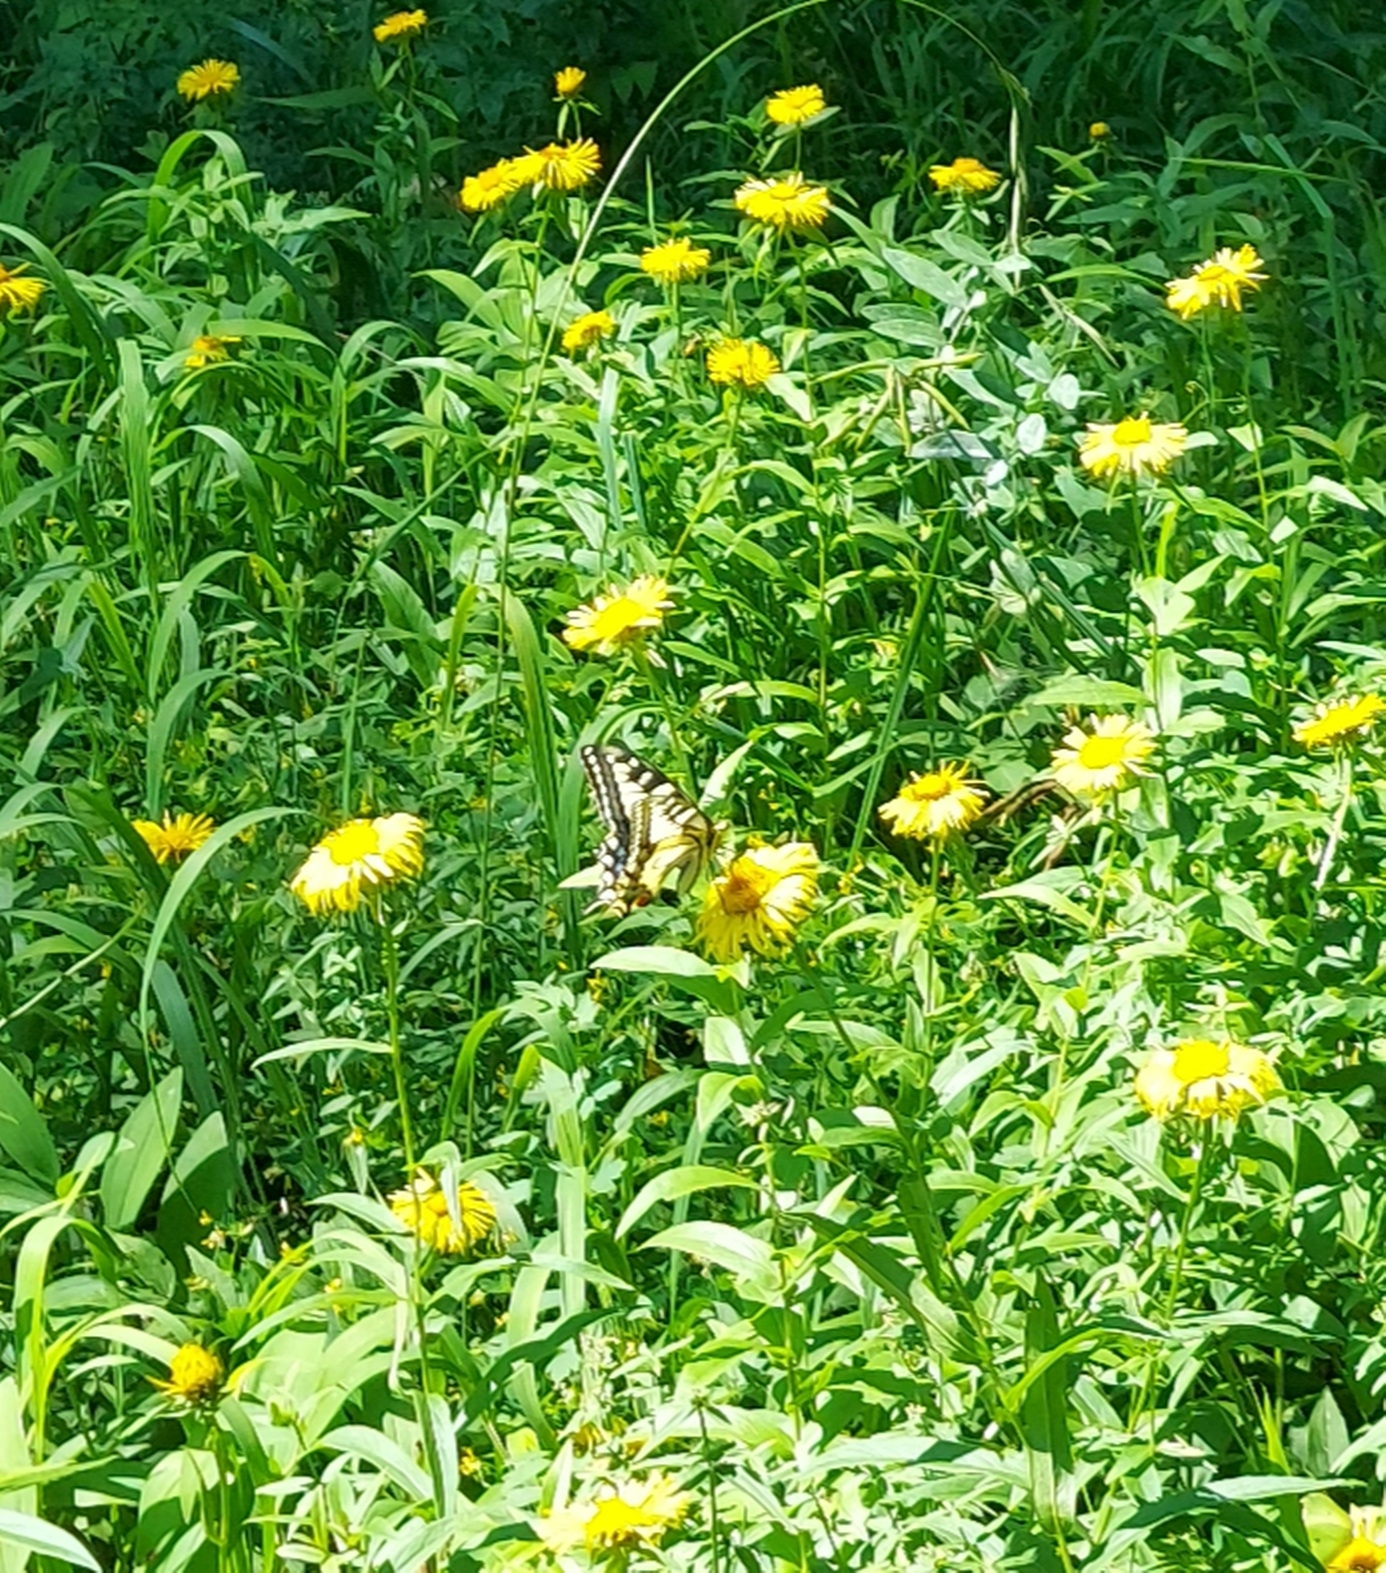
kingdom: Animalia
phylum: Arthropoda
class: Insecta
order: Lepidoptera
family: Papilionidae
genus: Papilio
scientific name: Papilio machaon
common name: Swallowtail
